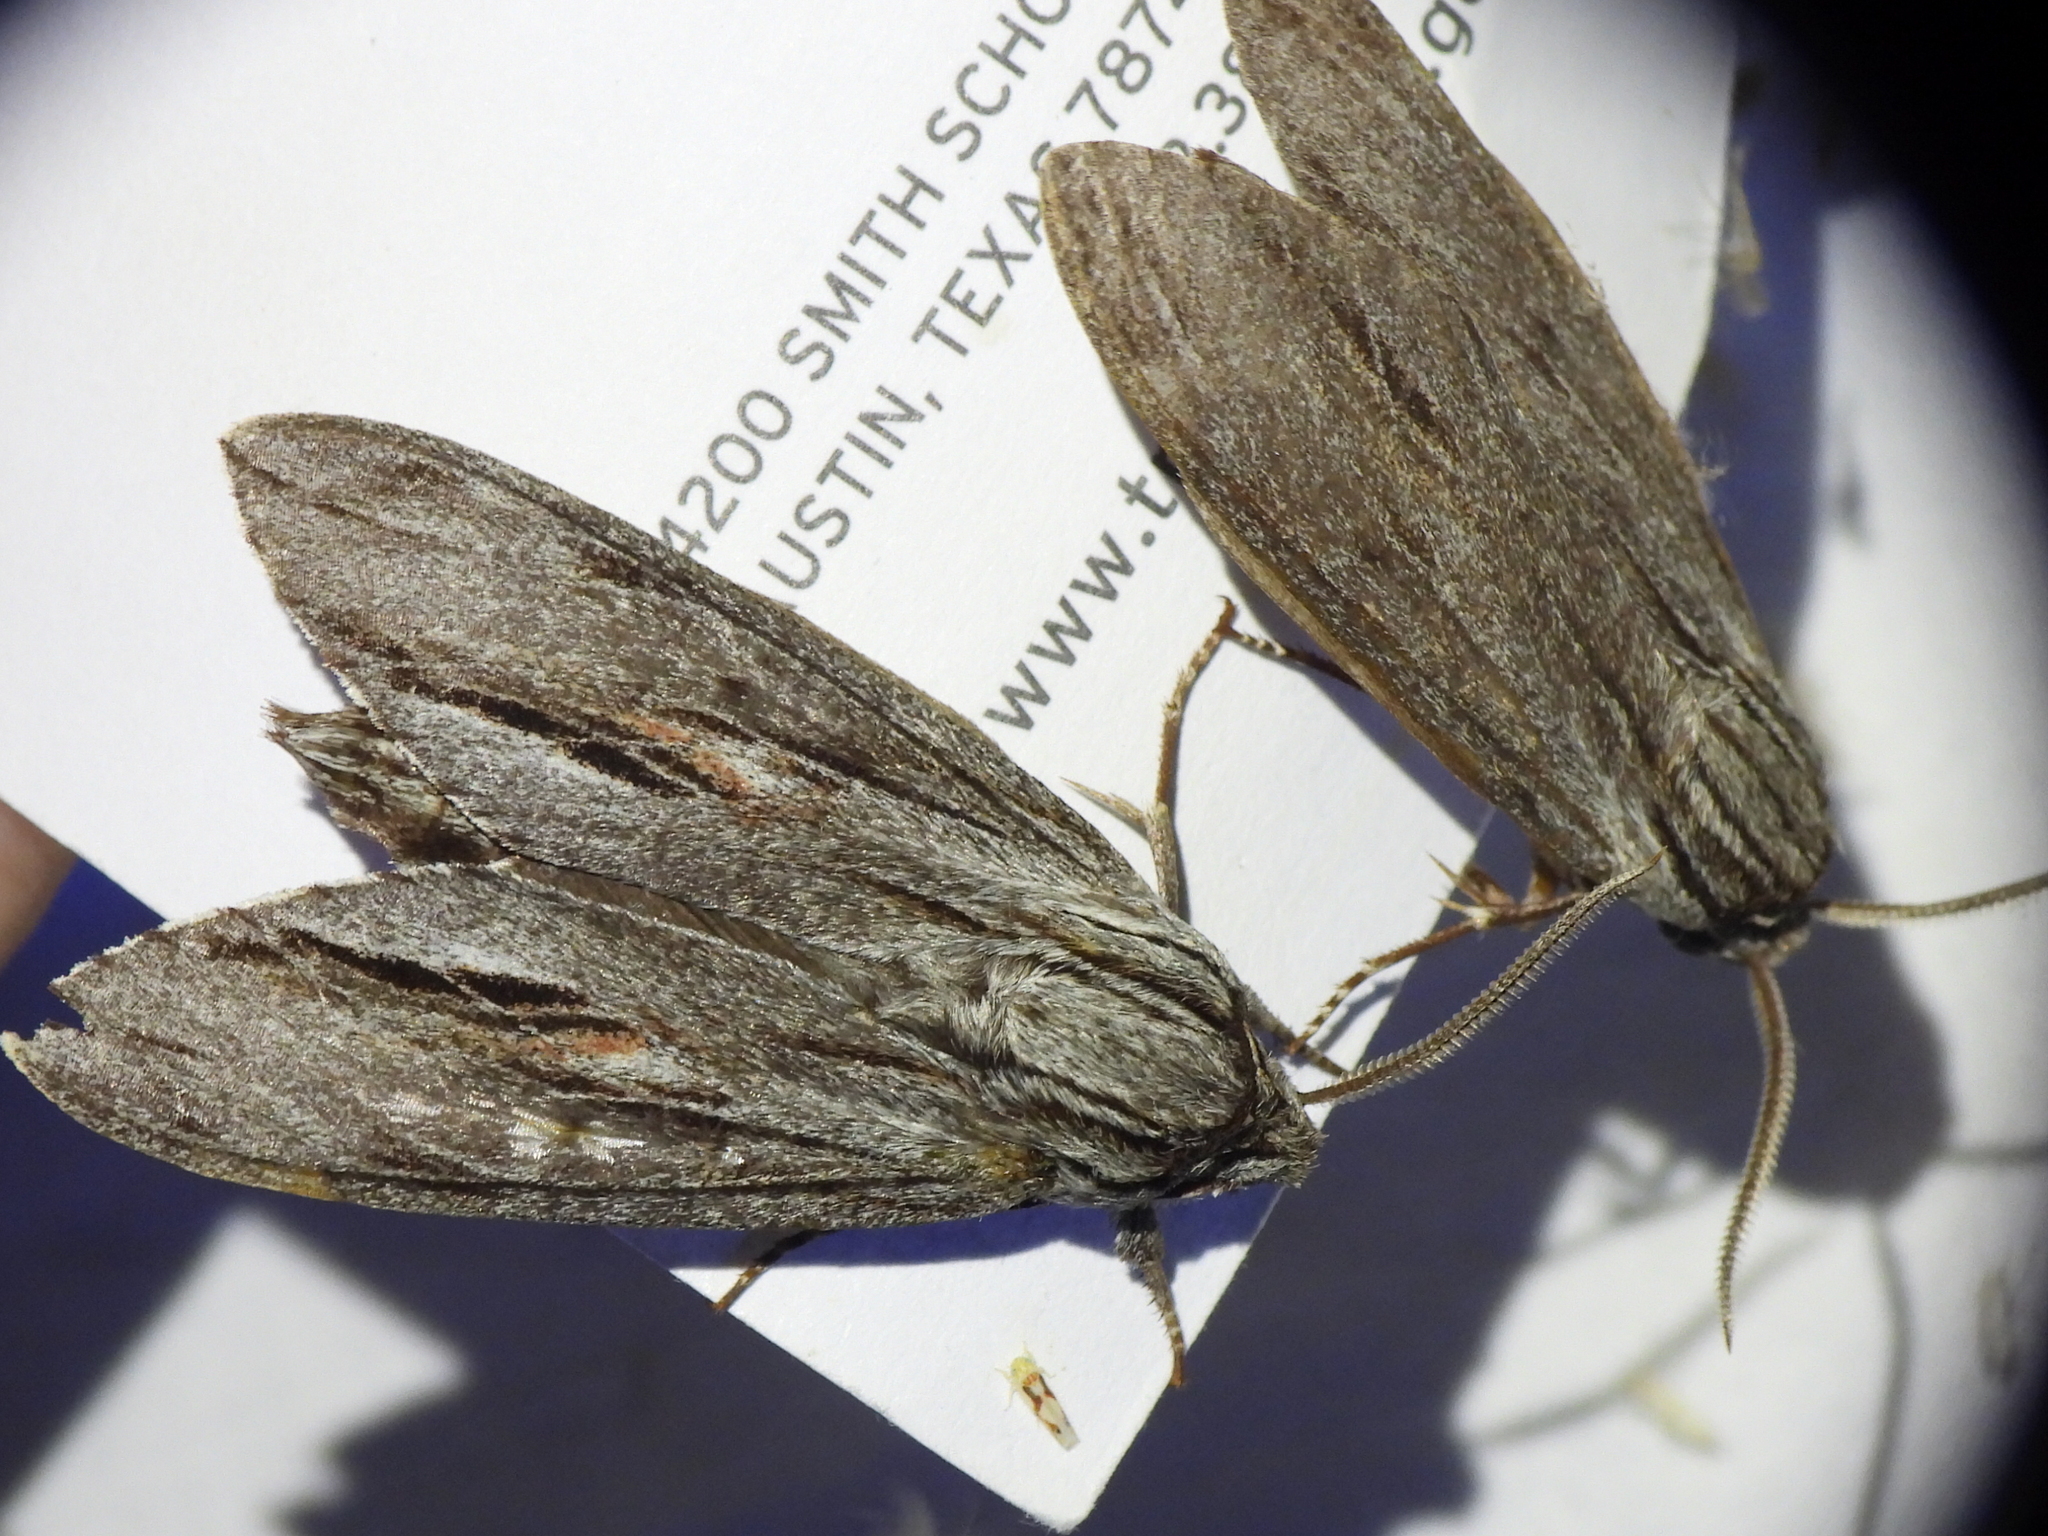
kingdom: Animalia
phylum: Arthropoda
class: Insecta
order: Lepidoptera
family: Sphingidae
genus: Isoparce
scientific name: Isoparce cupressi
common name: Cypress sphinx
